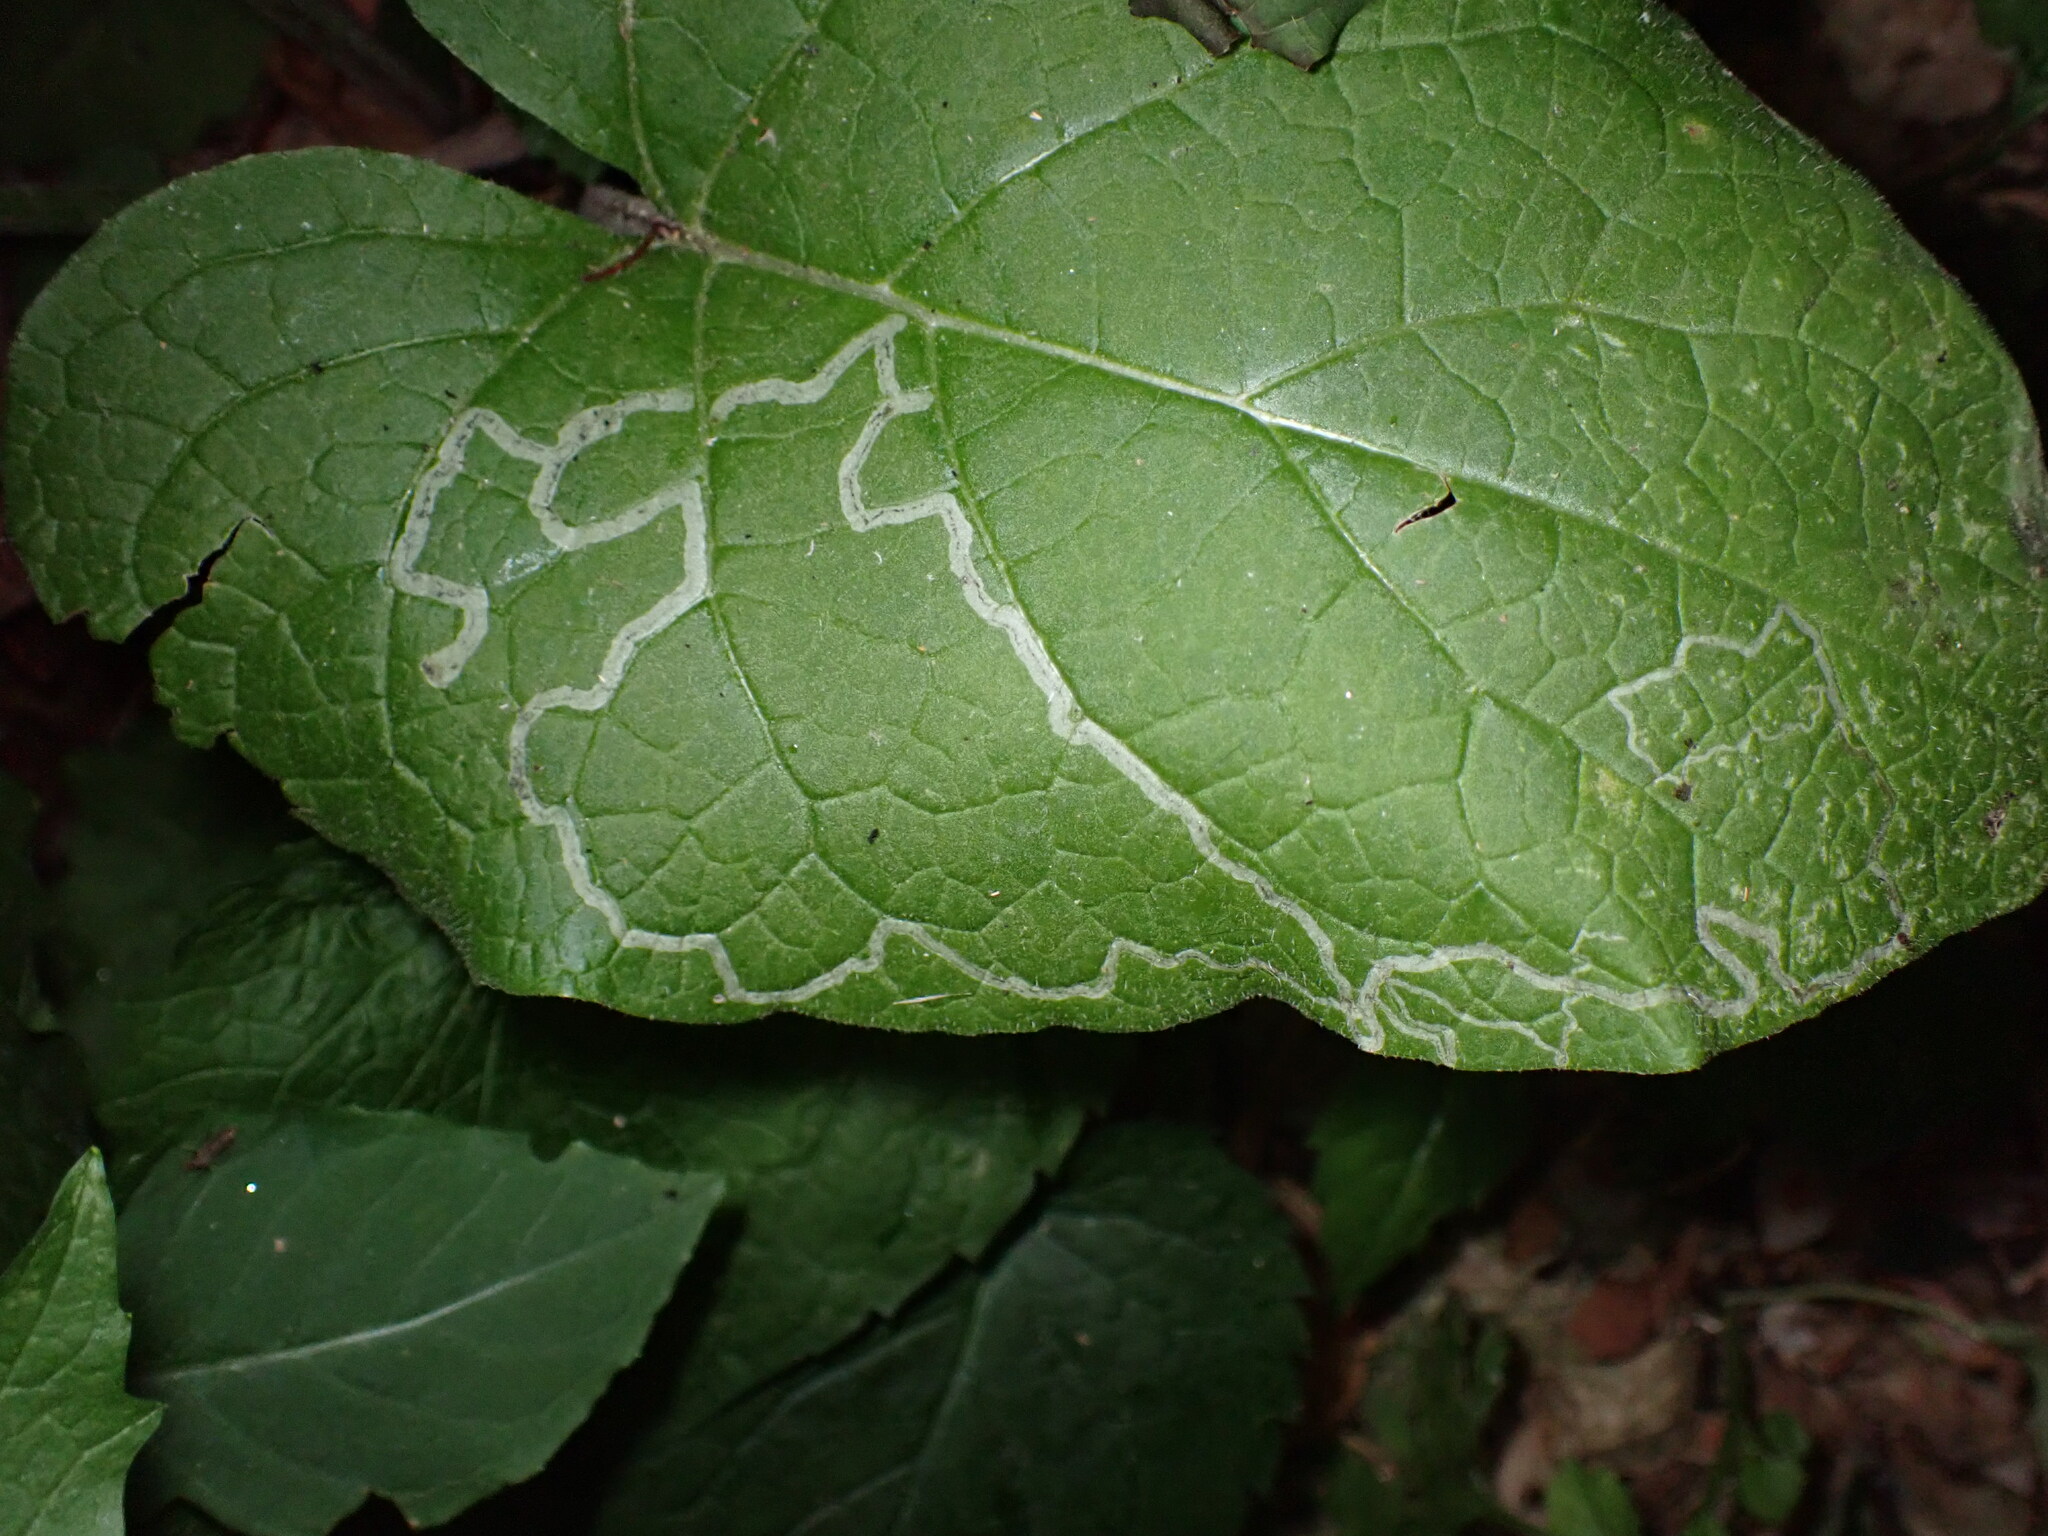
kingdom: Animalia
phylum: Arthropoda
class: Insecta
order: Diptera
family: Agromyzidae
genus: Liriomyza
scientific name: Liriomyza arctii
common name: Burdock leafminer
